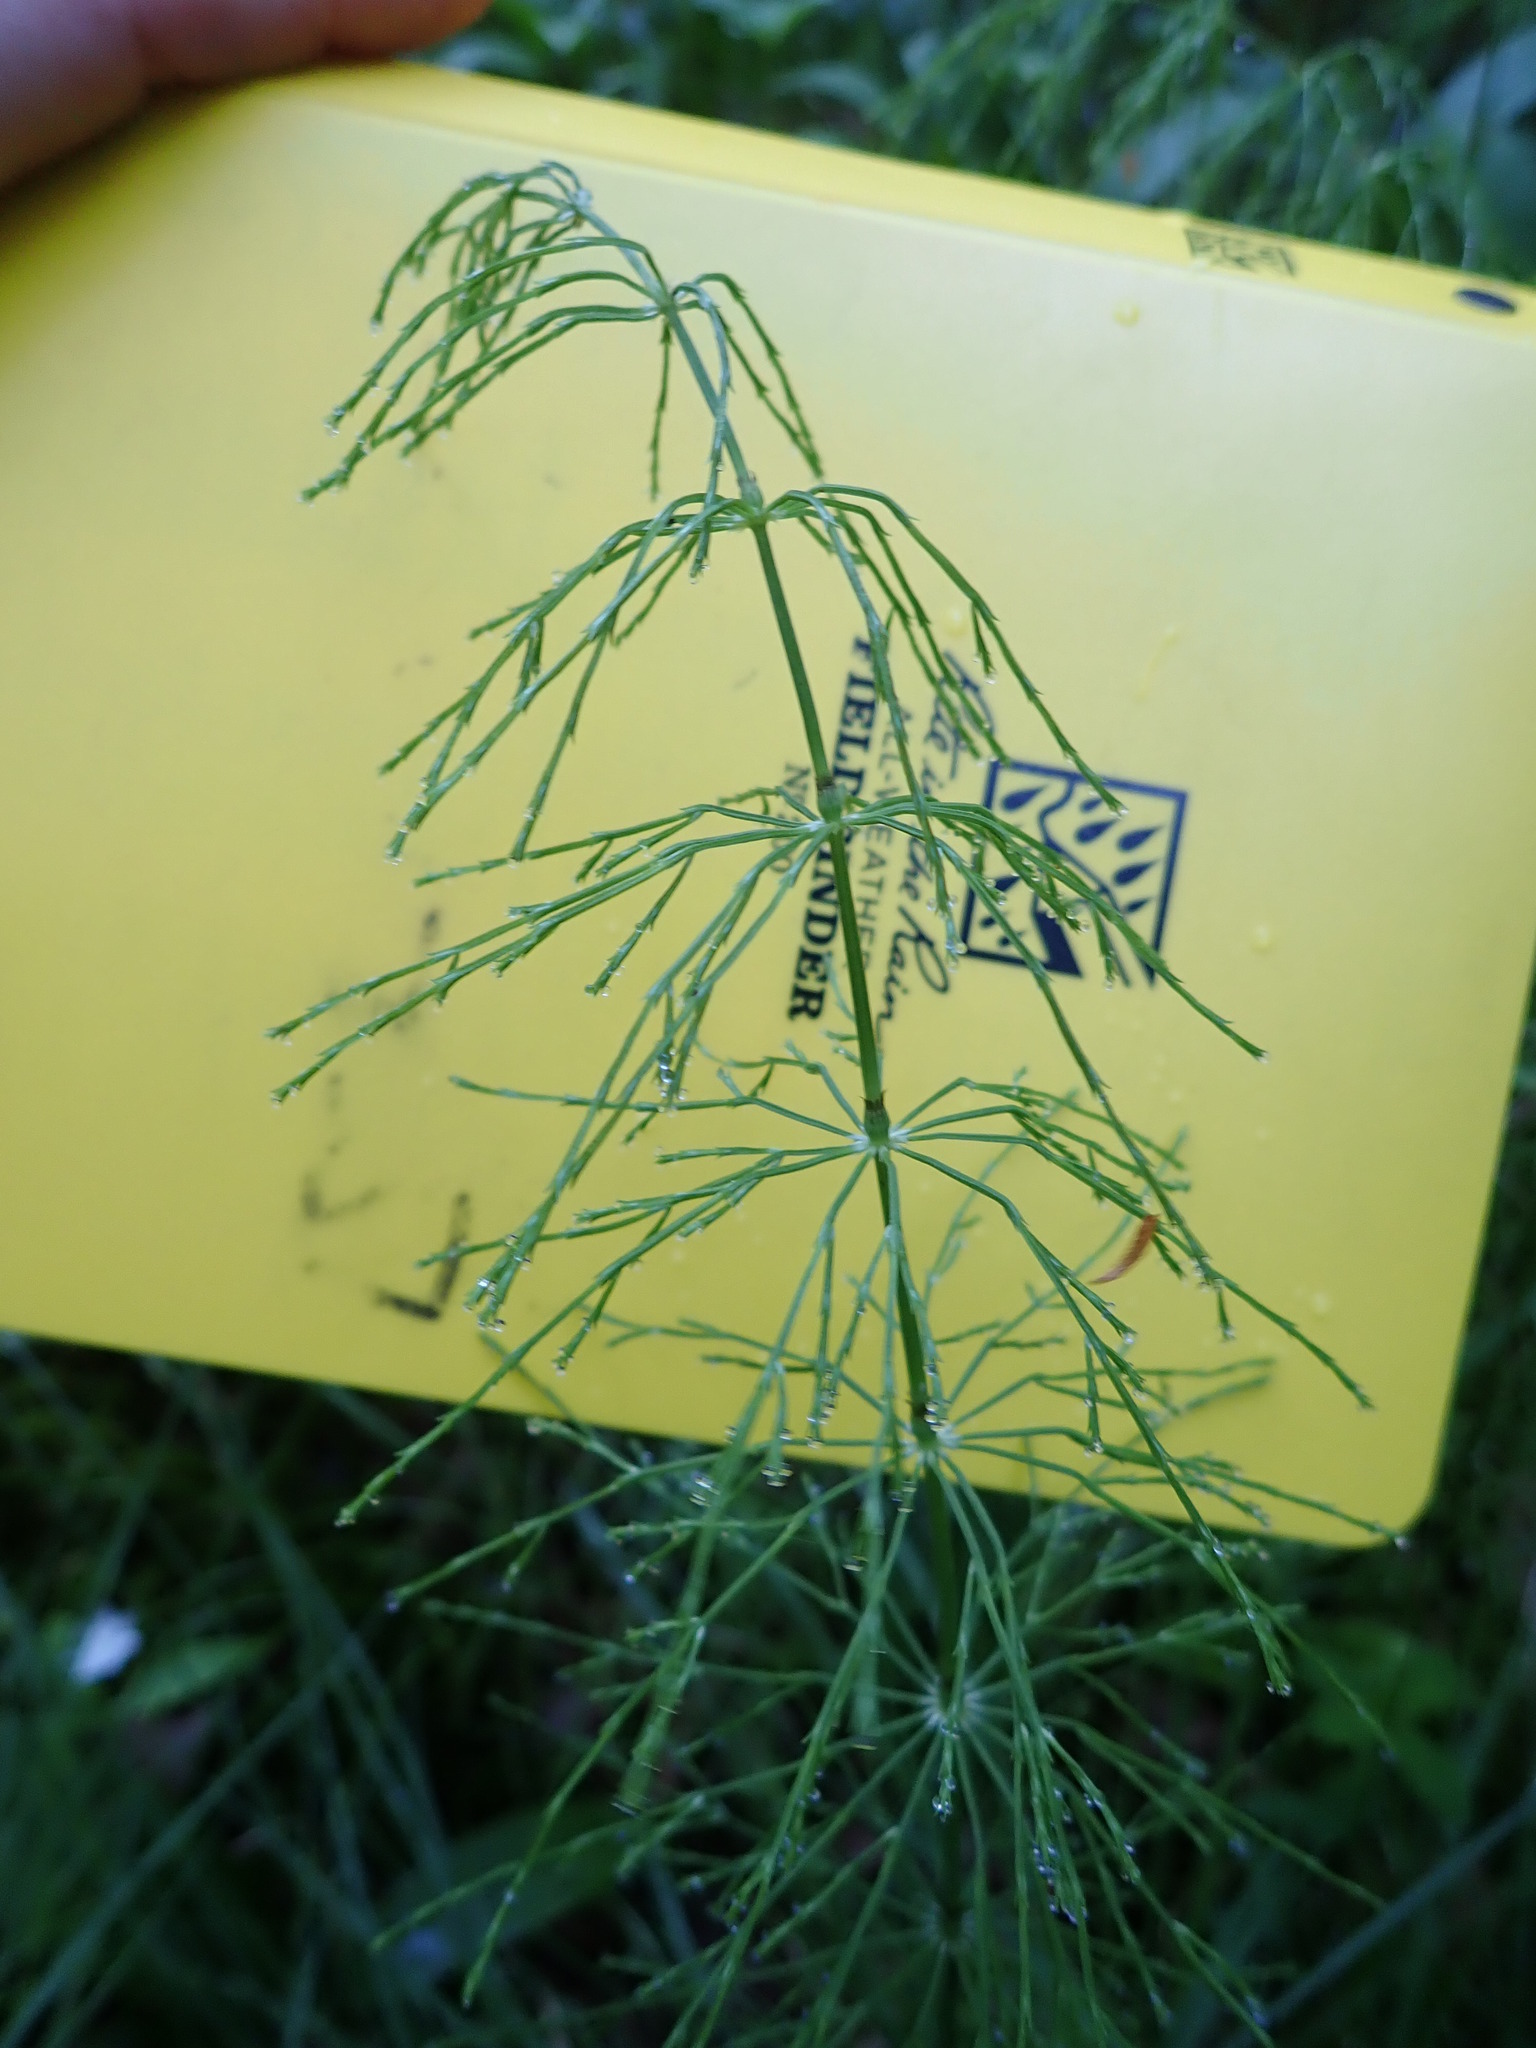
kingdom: Plantae
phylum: Tracheophyta
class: Polypodiopsida
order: Equisetales
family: Equisetaceae
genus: Equisetum
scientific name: Equisetum sylvaticum
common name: Wood horsetail
